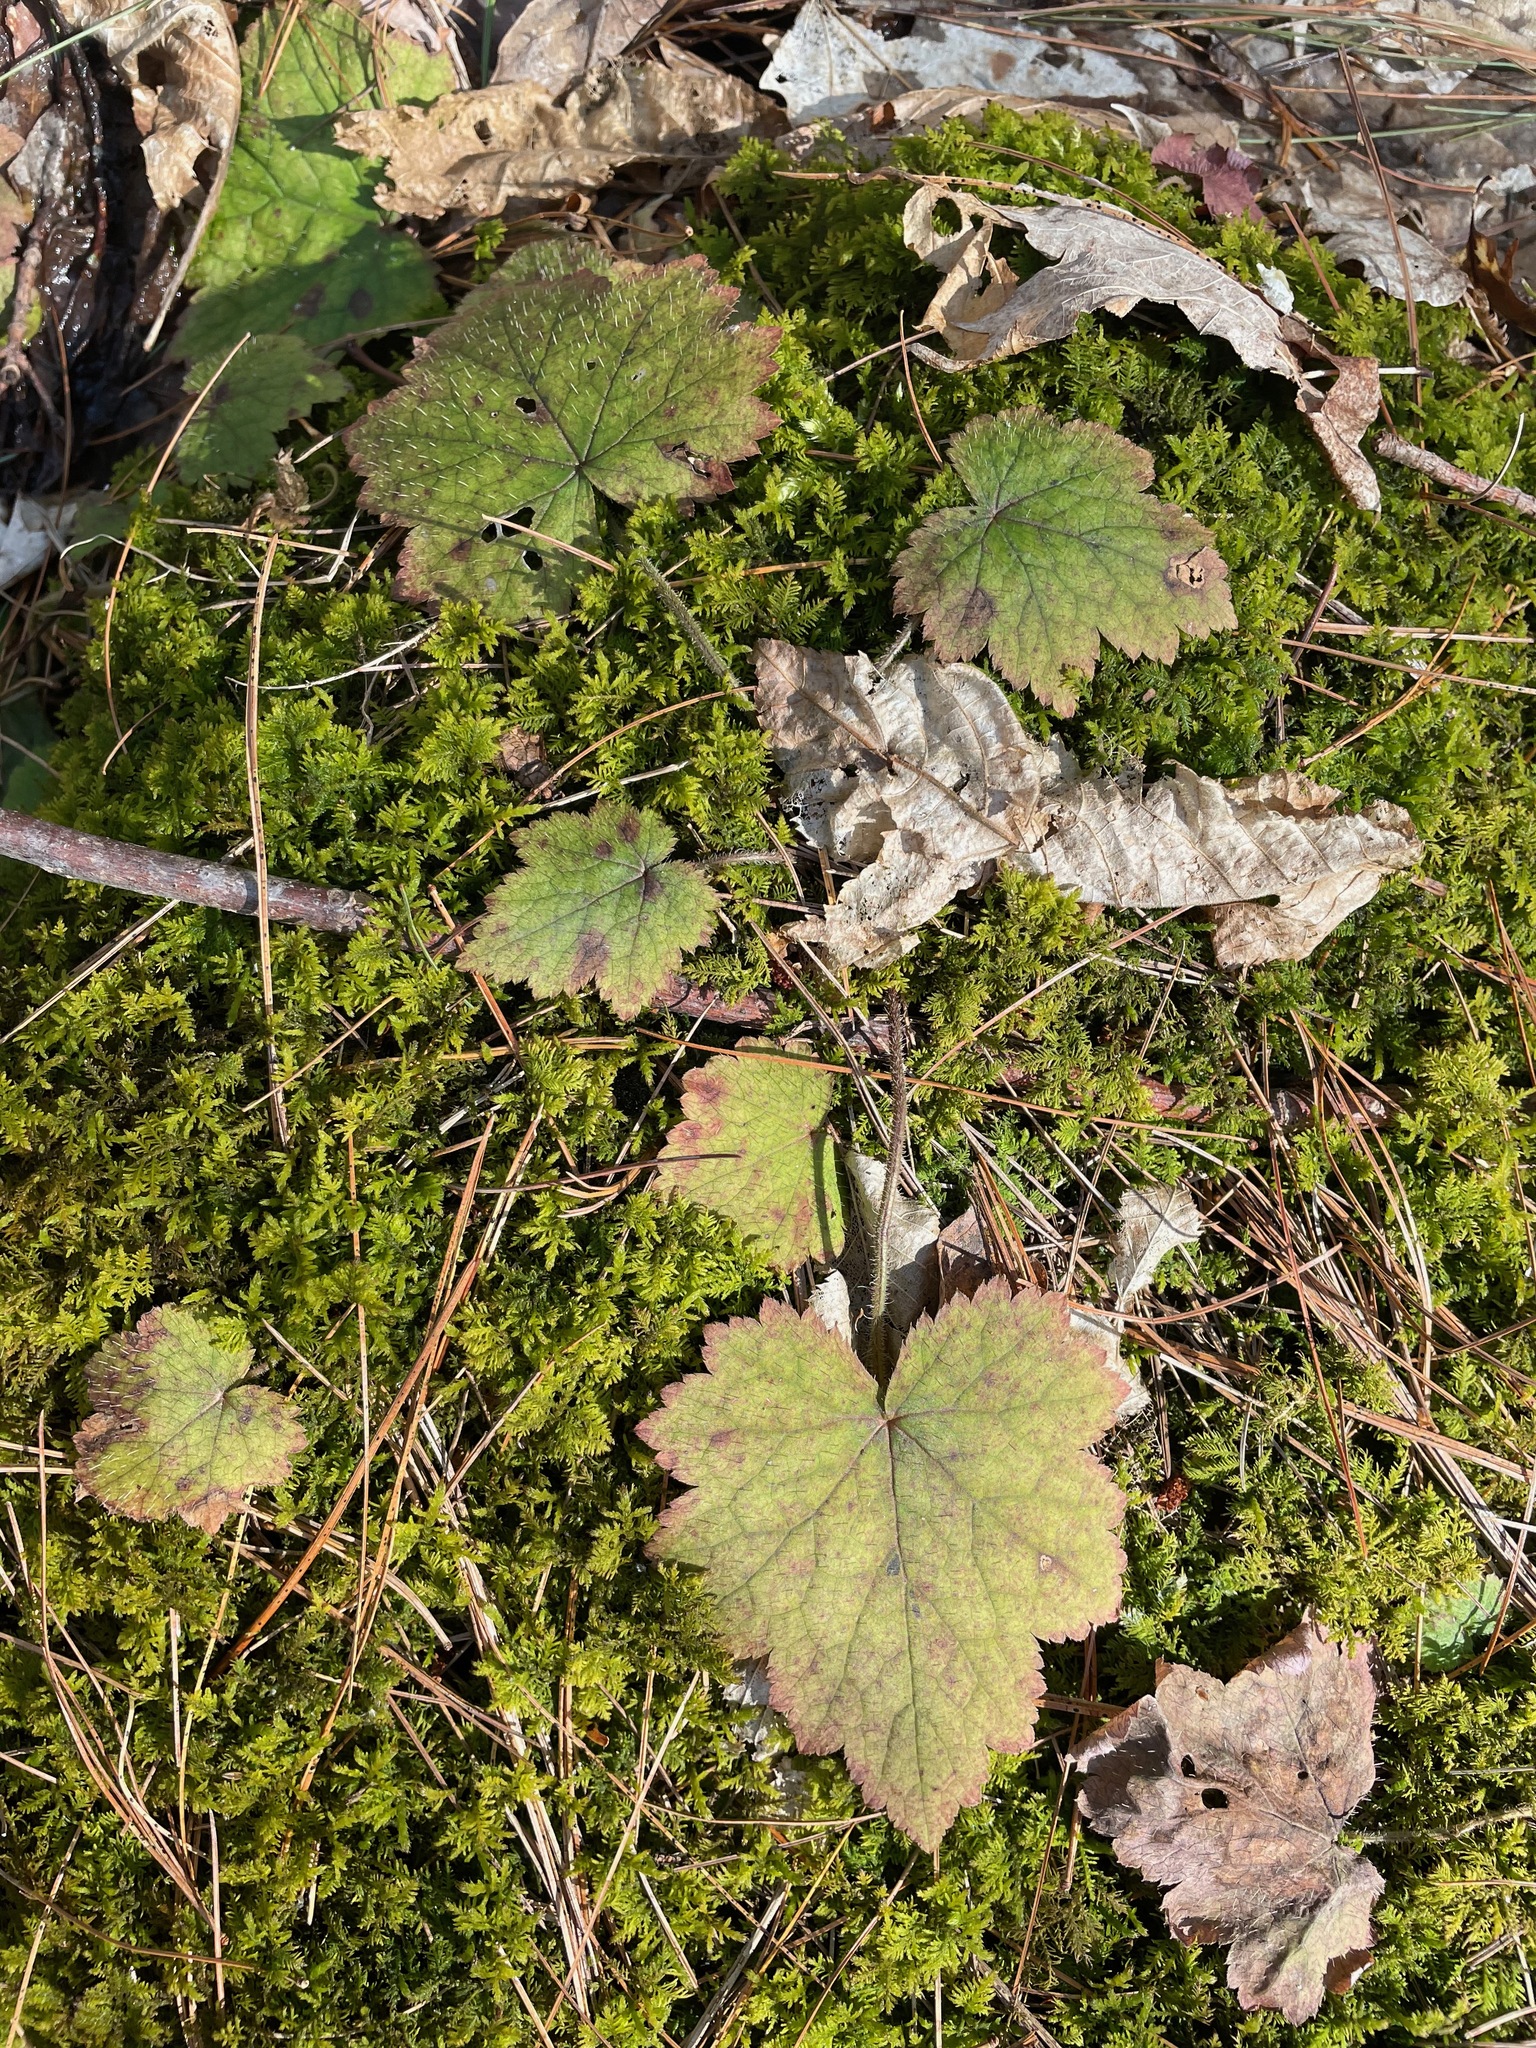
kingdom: Plantae
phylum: Tracheophyta
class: Magnoliopsida
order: Saxifragales
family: Saxifragaceae
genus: Tiarella
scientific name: Tiarella stolonifera
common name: Stoloniferous foamflower
